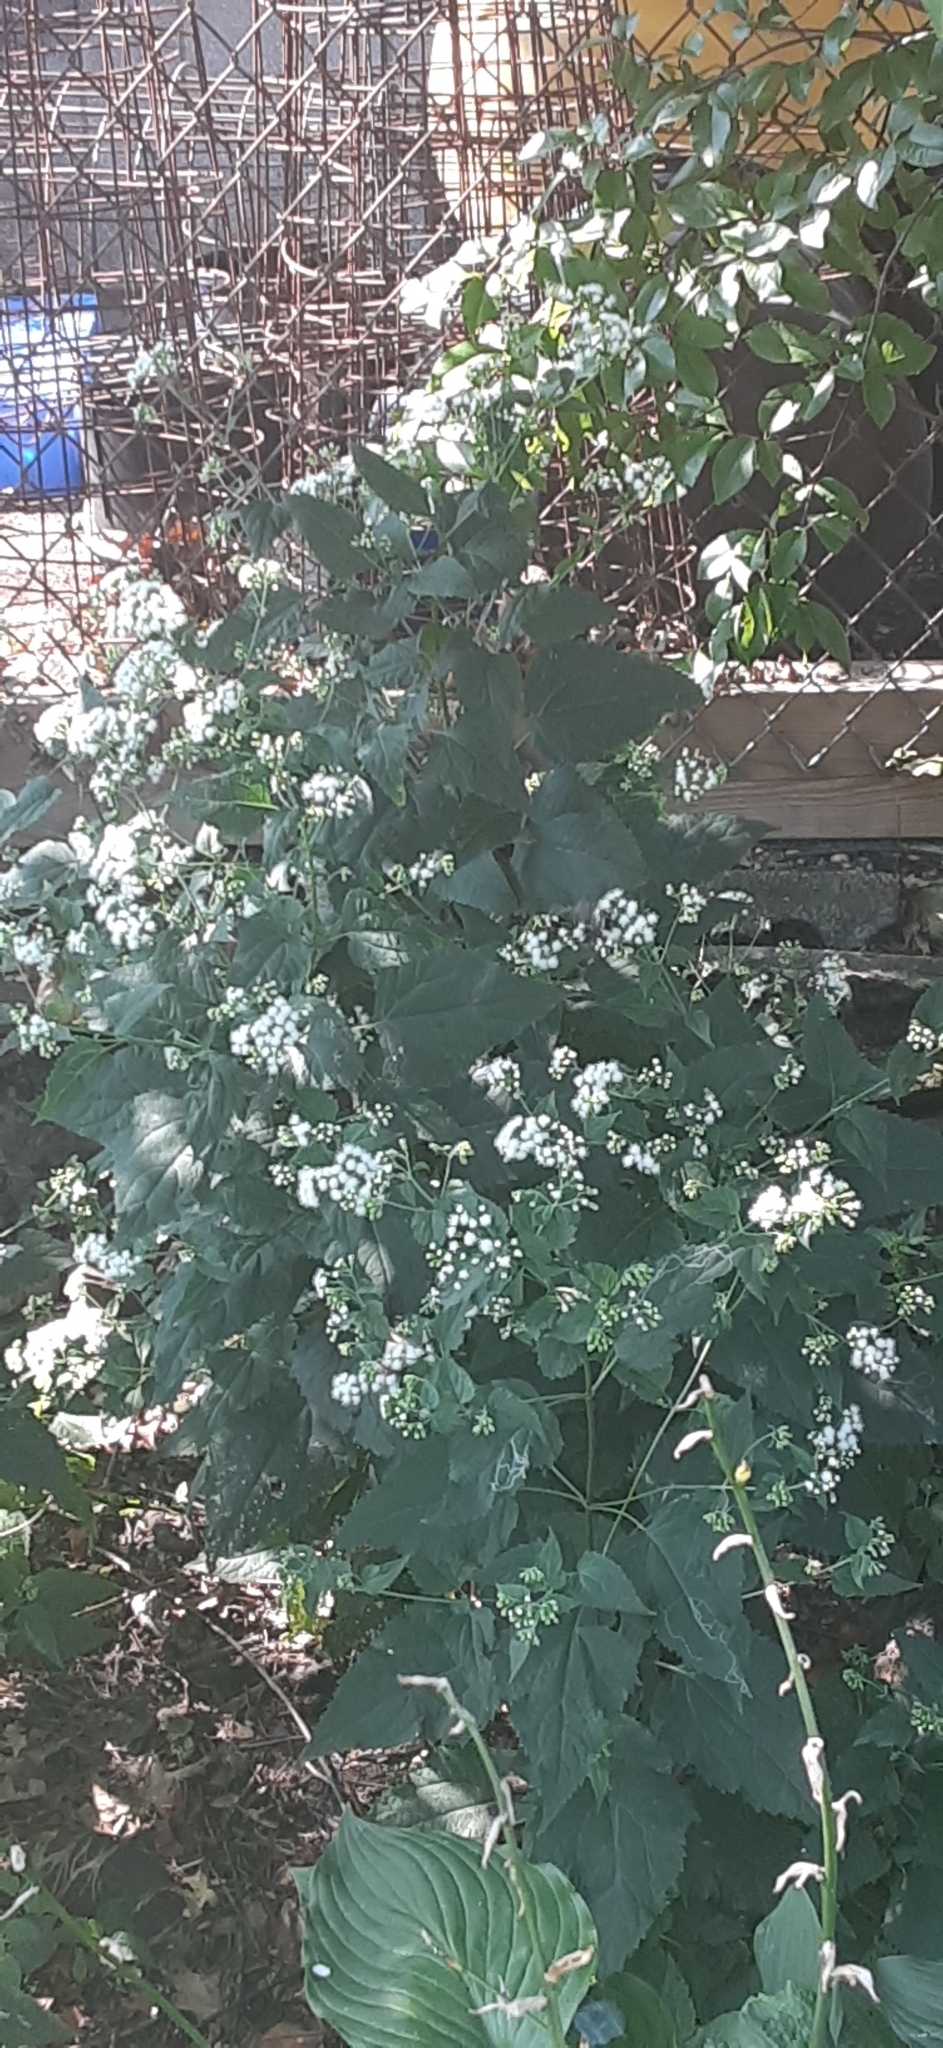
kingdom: Plantae
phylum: Tracheophyta
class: Magnoliopsida
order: Asterales
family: Asteraceae
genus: Ageratina
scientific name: Ageratina altissima
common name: White snakeroot
